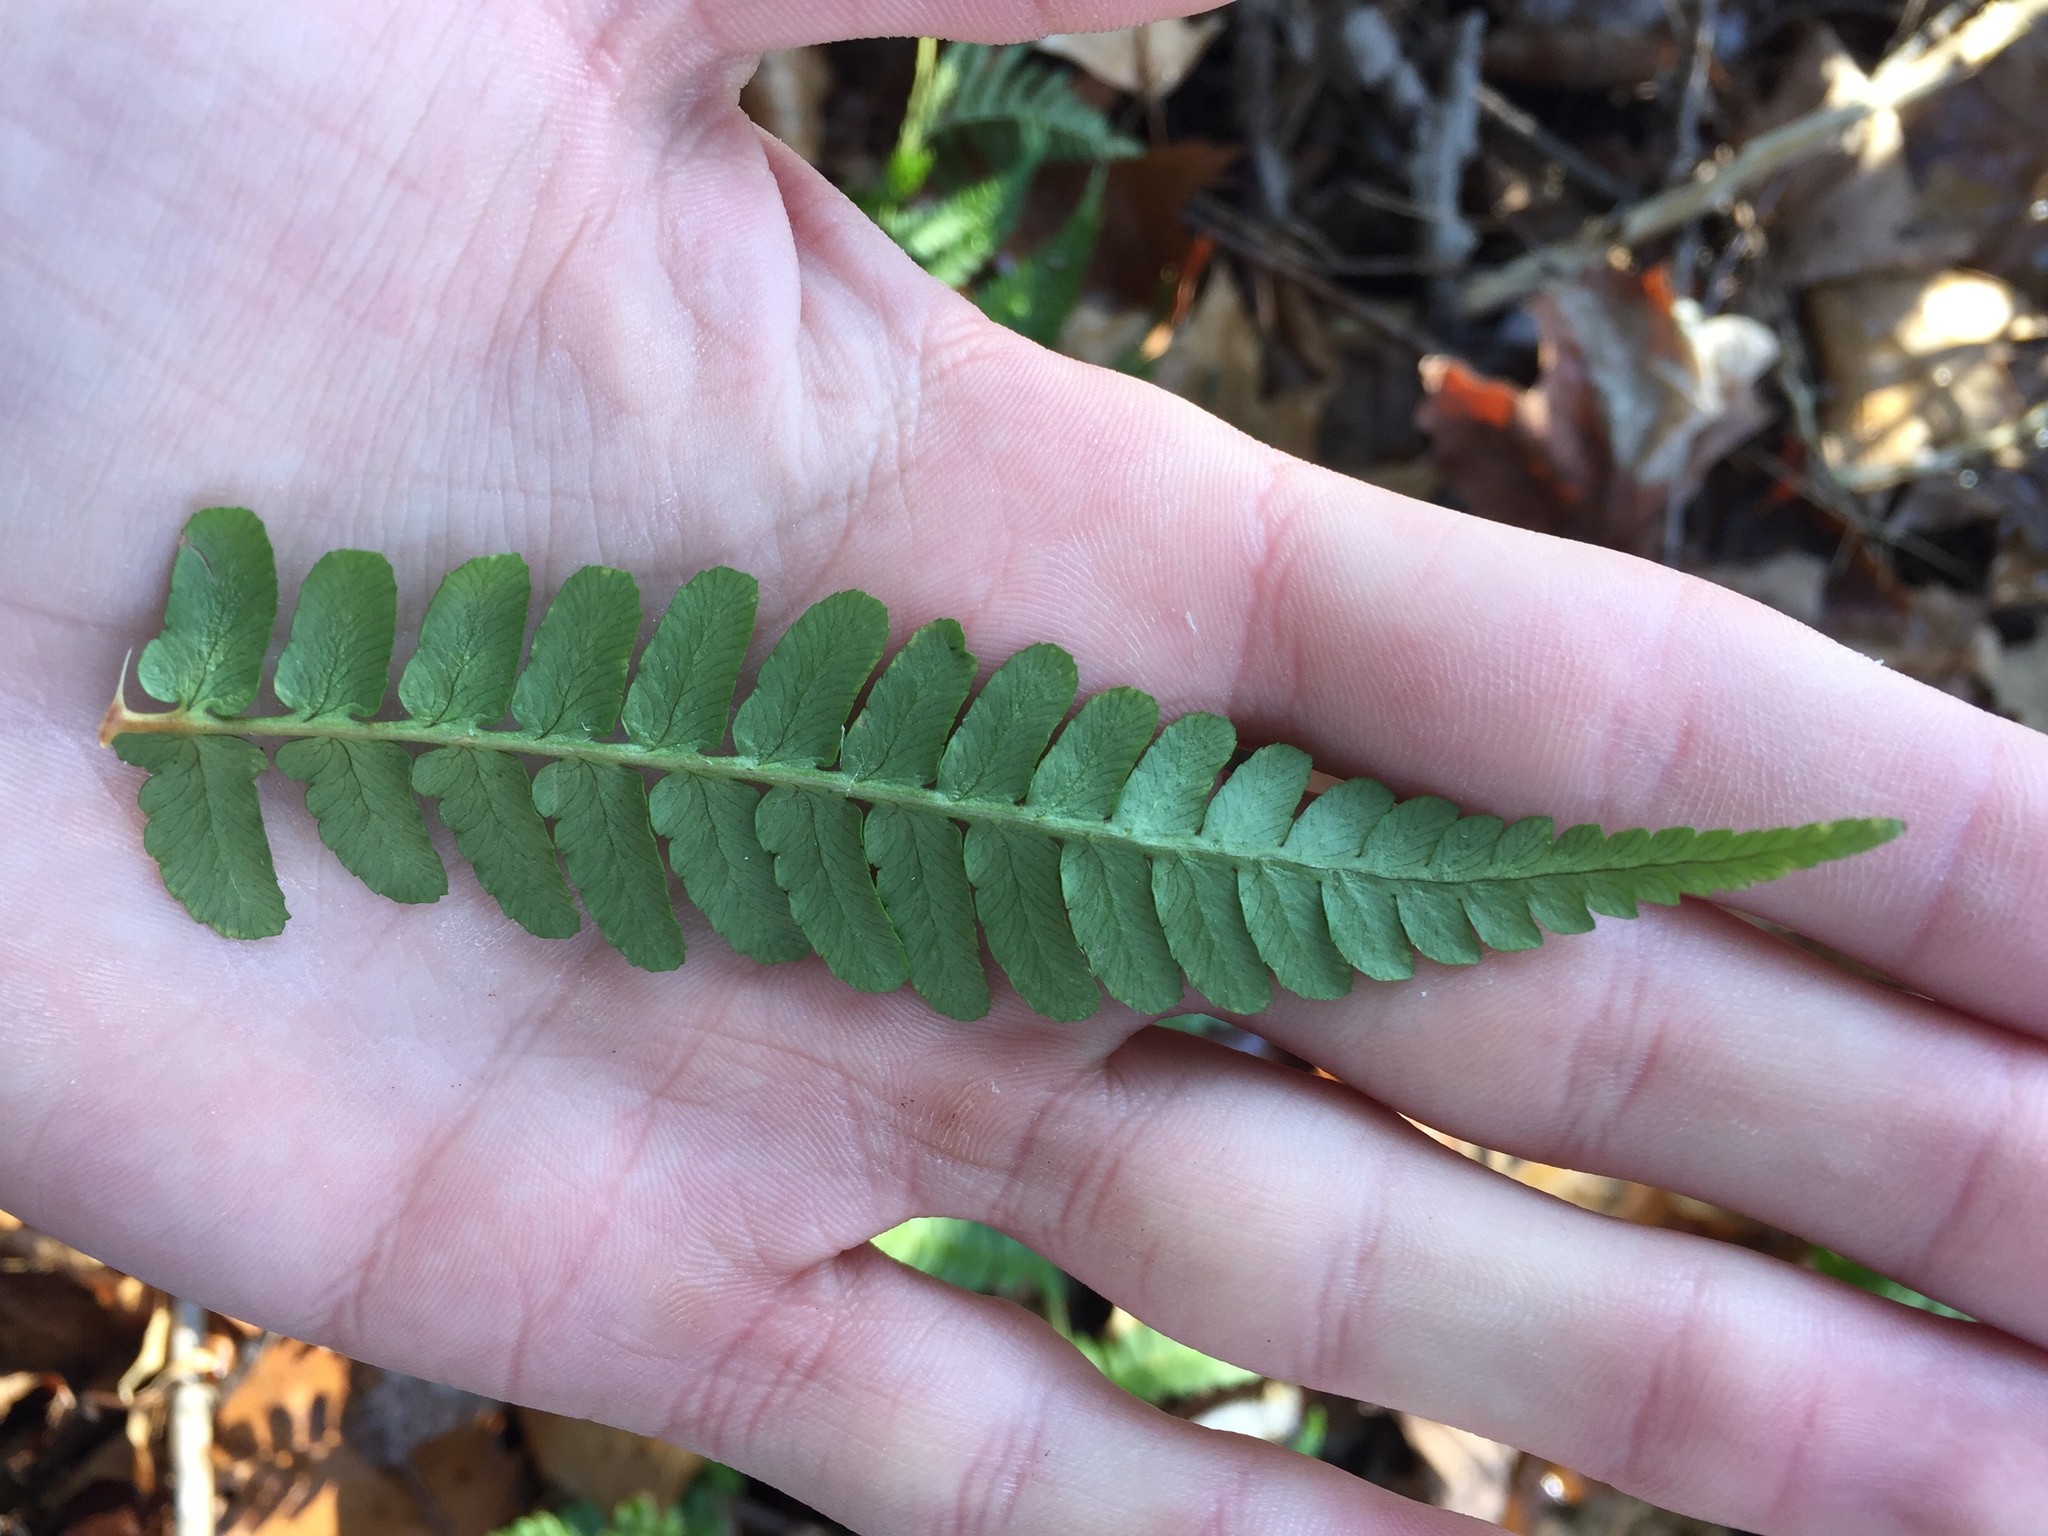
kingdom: Plantae
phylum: Tracheophyta
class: Polypodiopsida
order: Polypodiales
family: Dryopteridaceae
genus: Dryopteris
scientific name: Dryopteris marginalis
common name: Marginal wood fern
